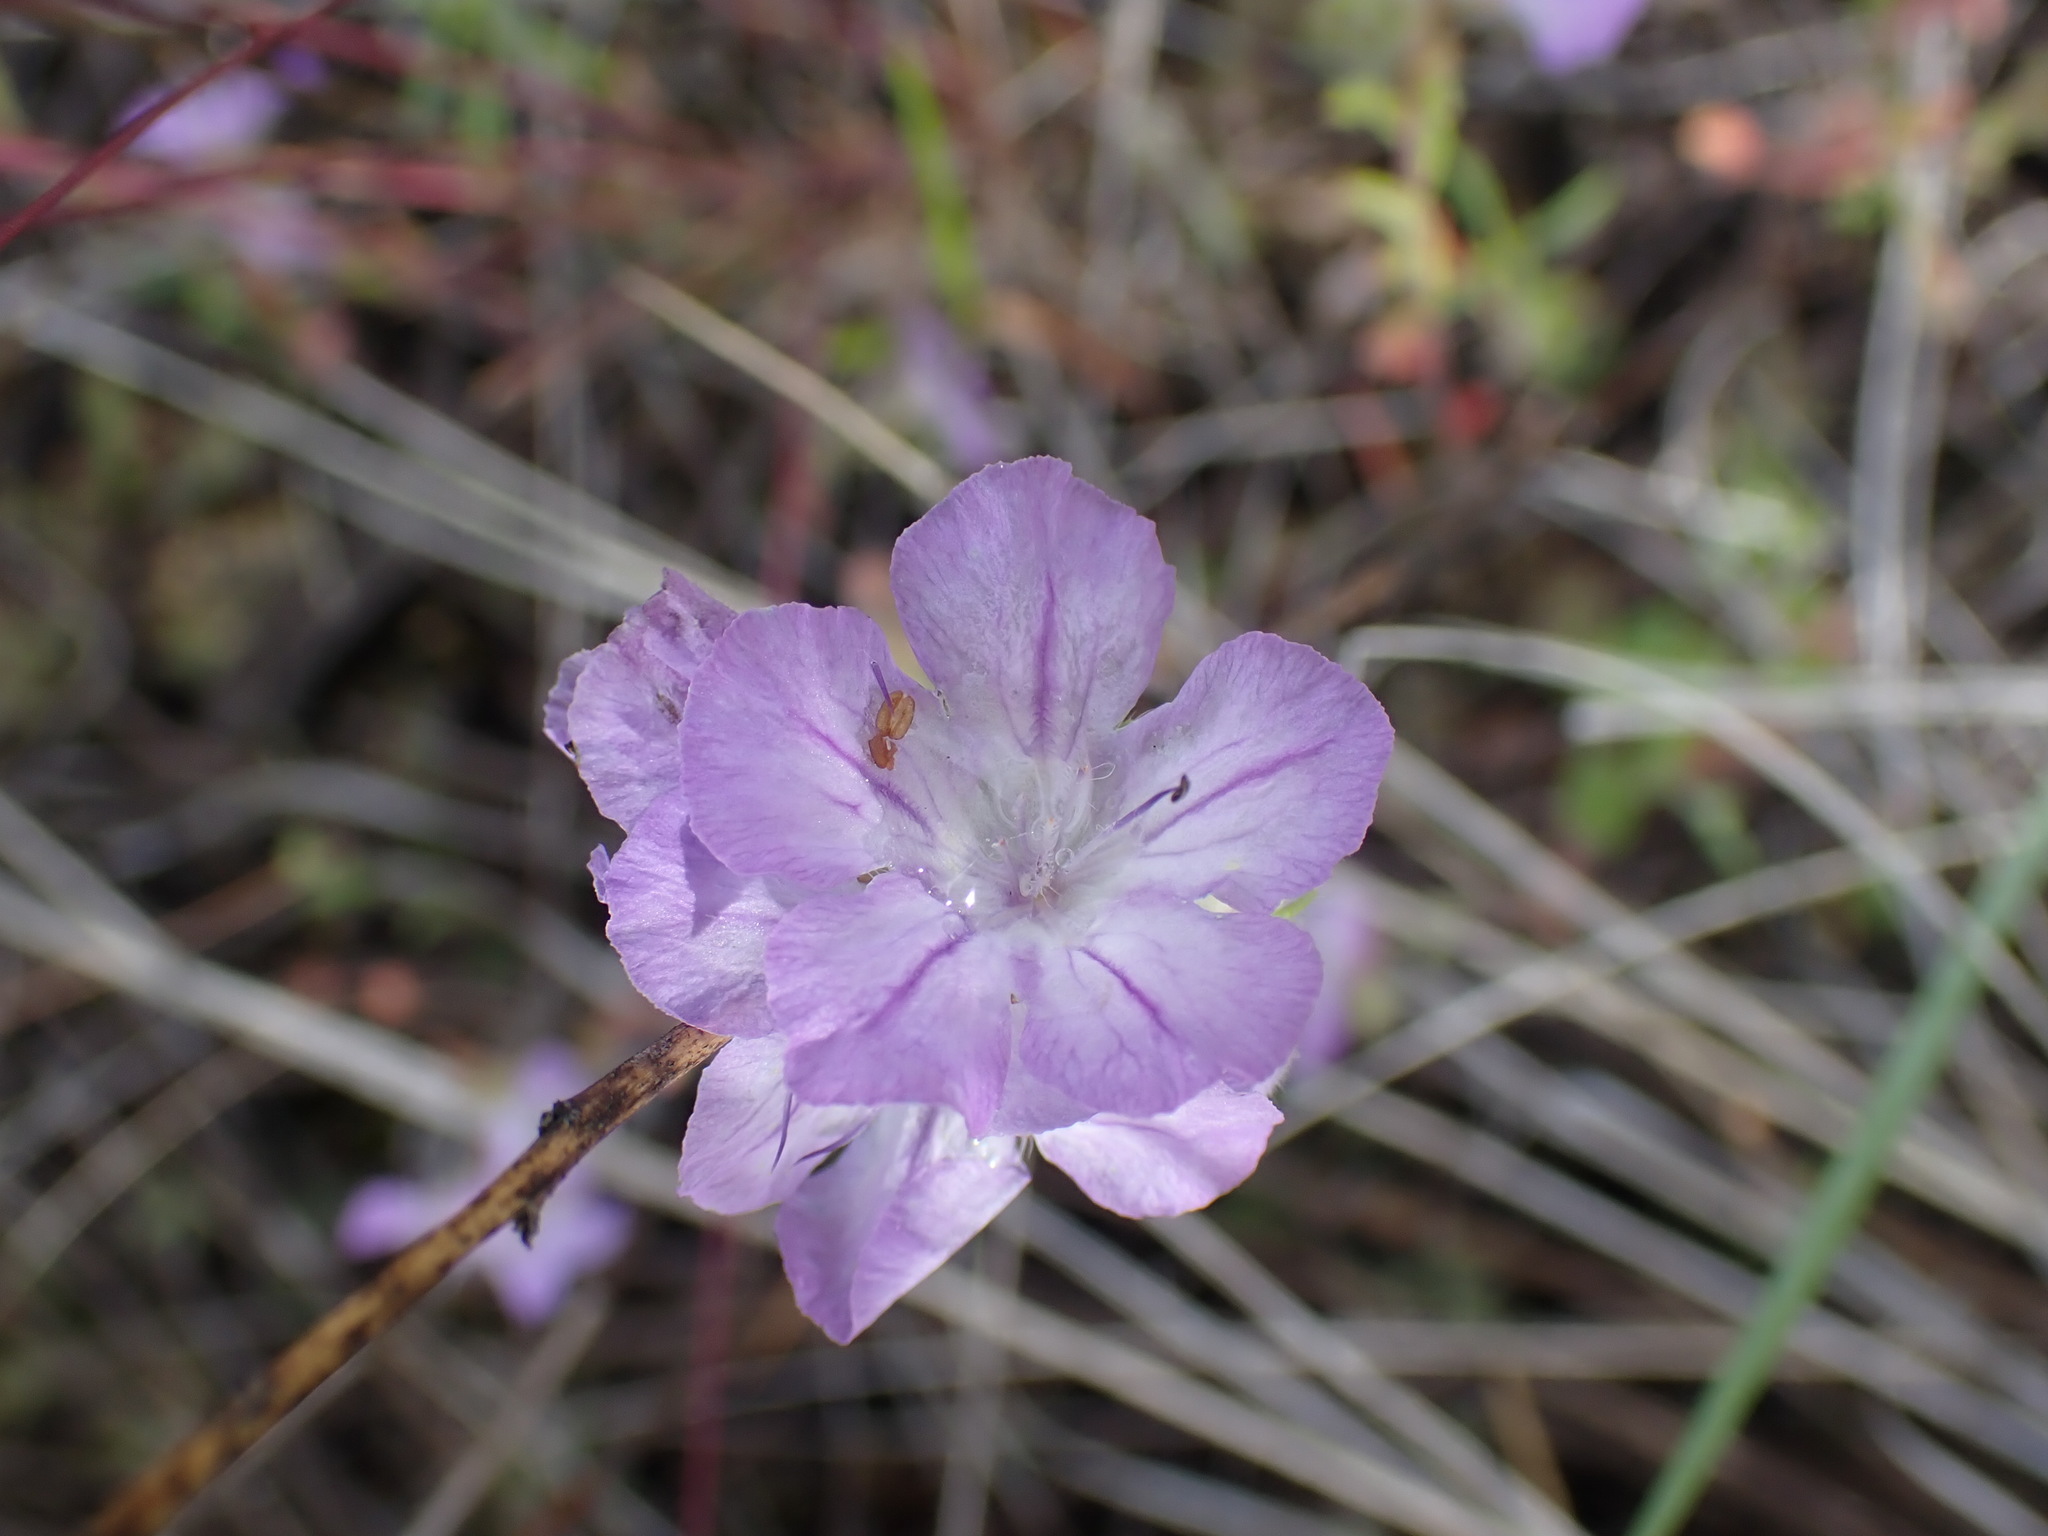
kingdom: Plantae
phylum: Tracheophyta
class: Magnoliopsida
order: Boraginales
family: Hydrophyllaceae
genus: Phacelia
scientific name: Phacelia linearis
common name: Linear-leaved phacelia
